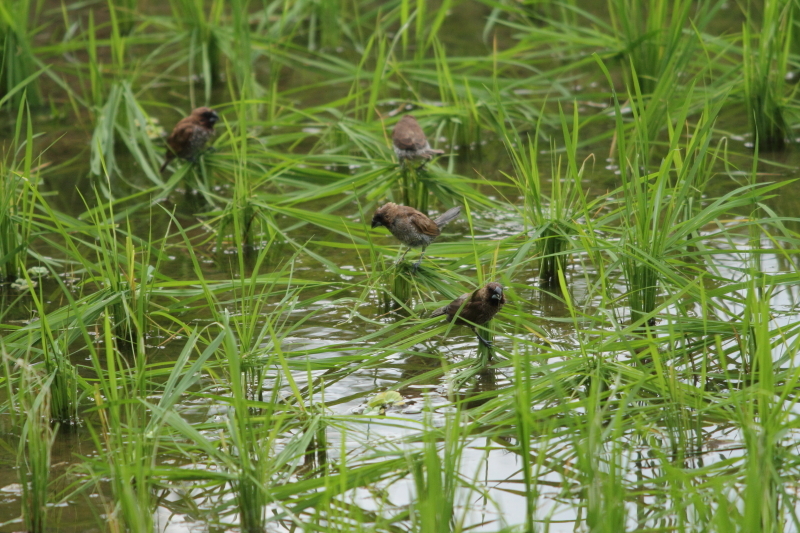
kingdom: Animalia
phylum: Chordata
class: Aves
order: Passeriformes
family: Estrildidae
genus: Lonchura
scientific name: Lonchura punctulata
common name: Scaly-breasted munia
